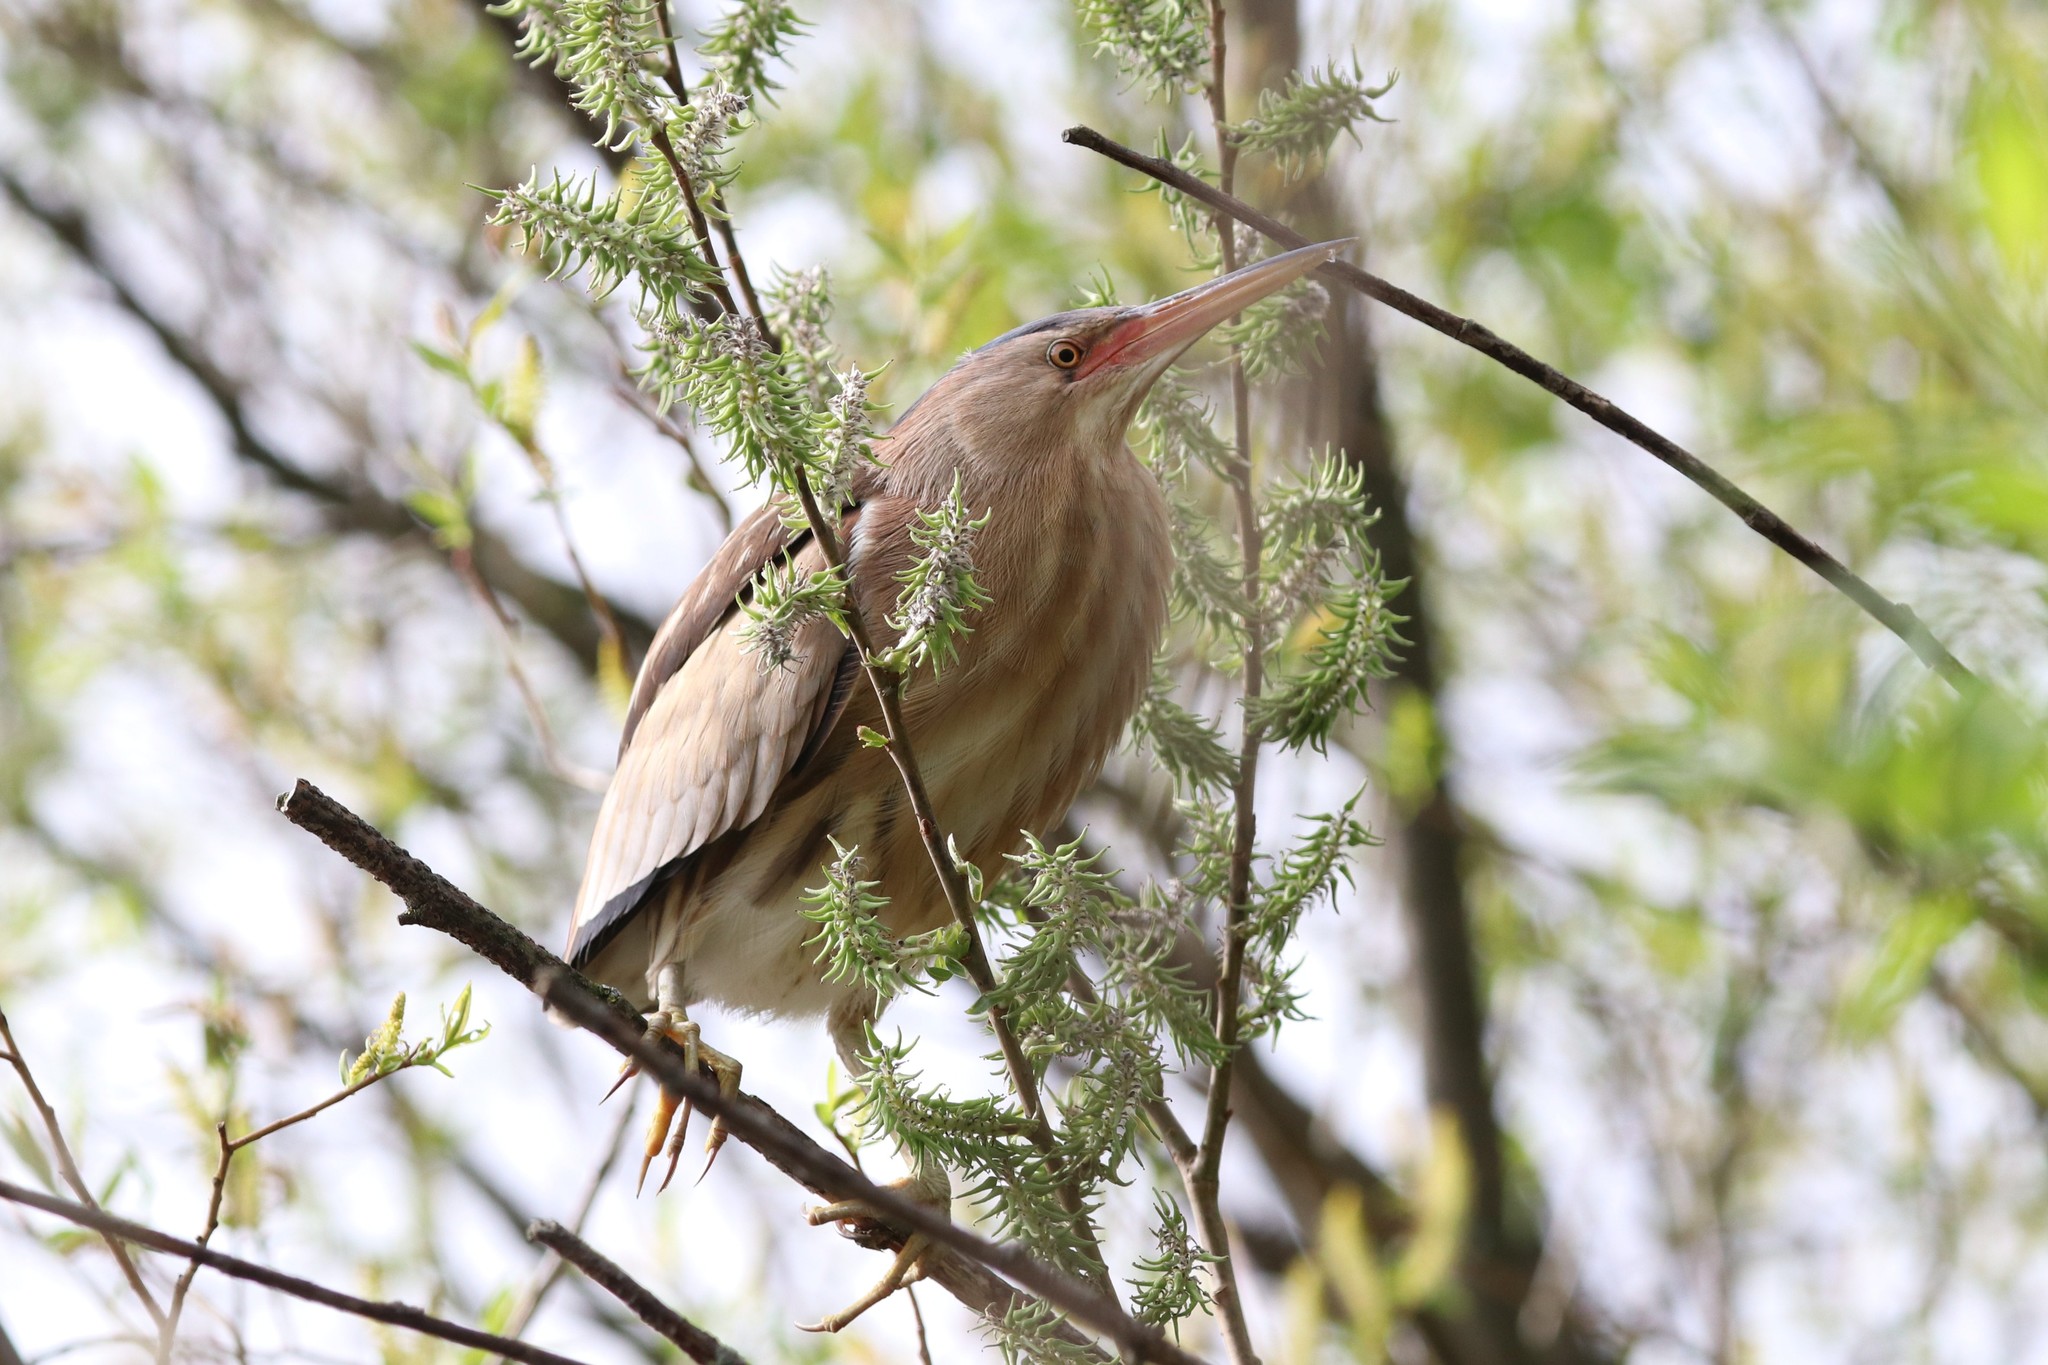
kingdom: Animalia
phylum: Chordata
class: Aves
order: Pelecaniformes
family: Ardeidae
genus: Ixobrychus
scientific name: Ixobrychus minutus
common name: Little bittern
